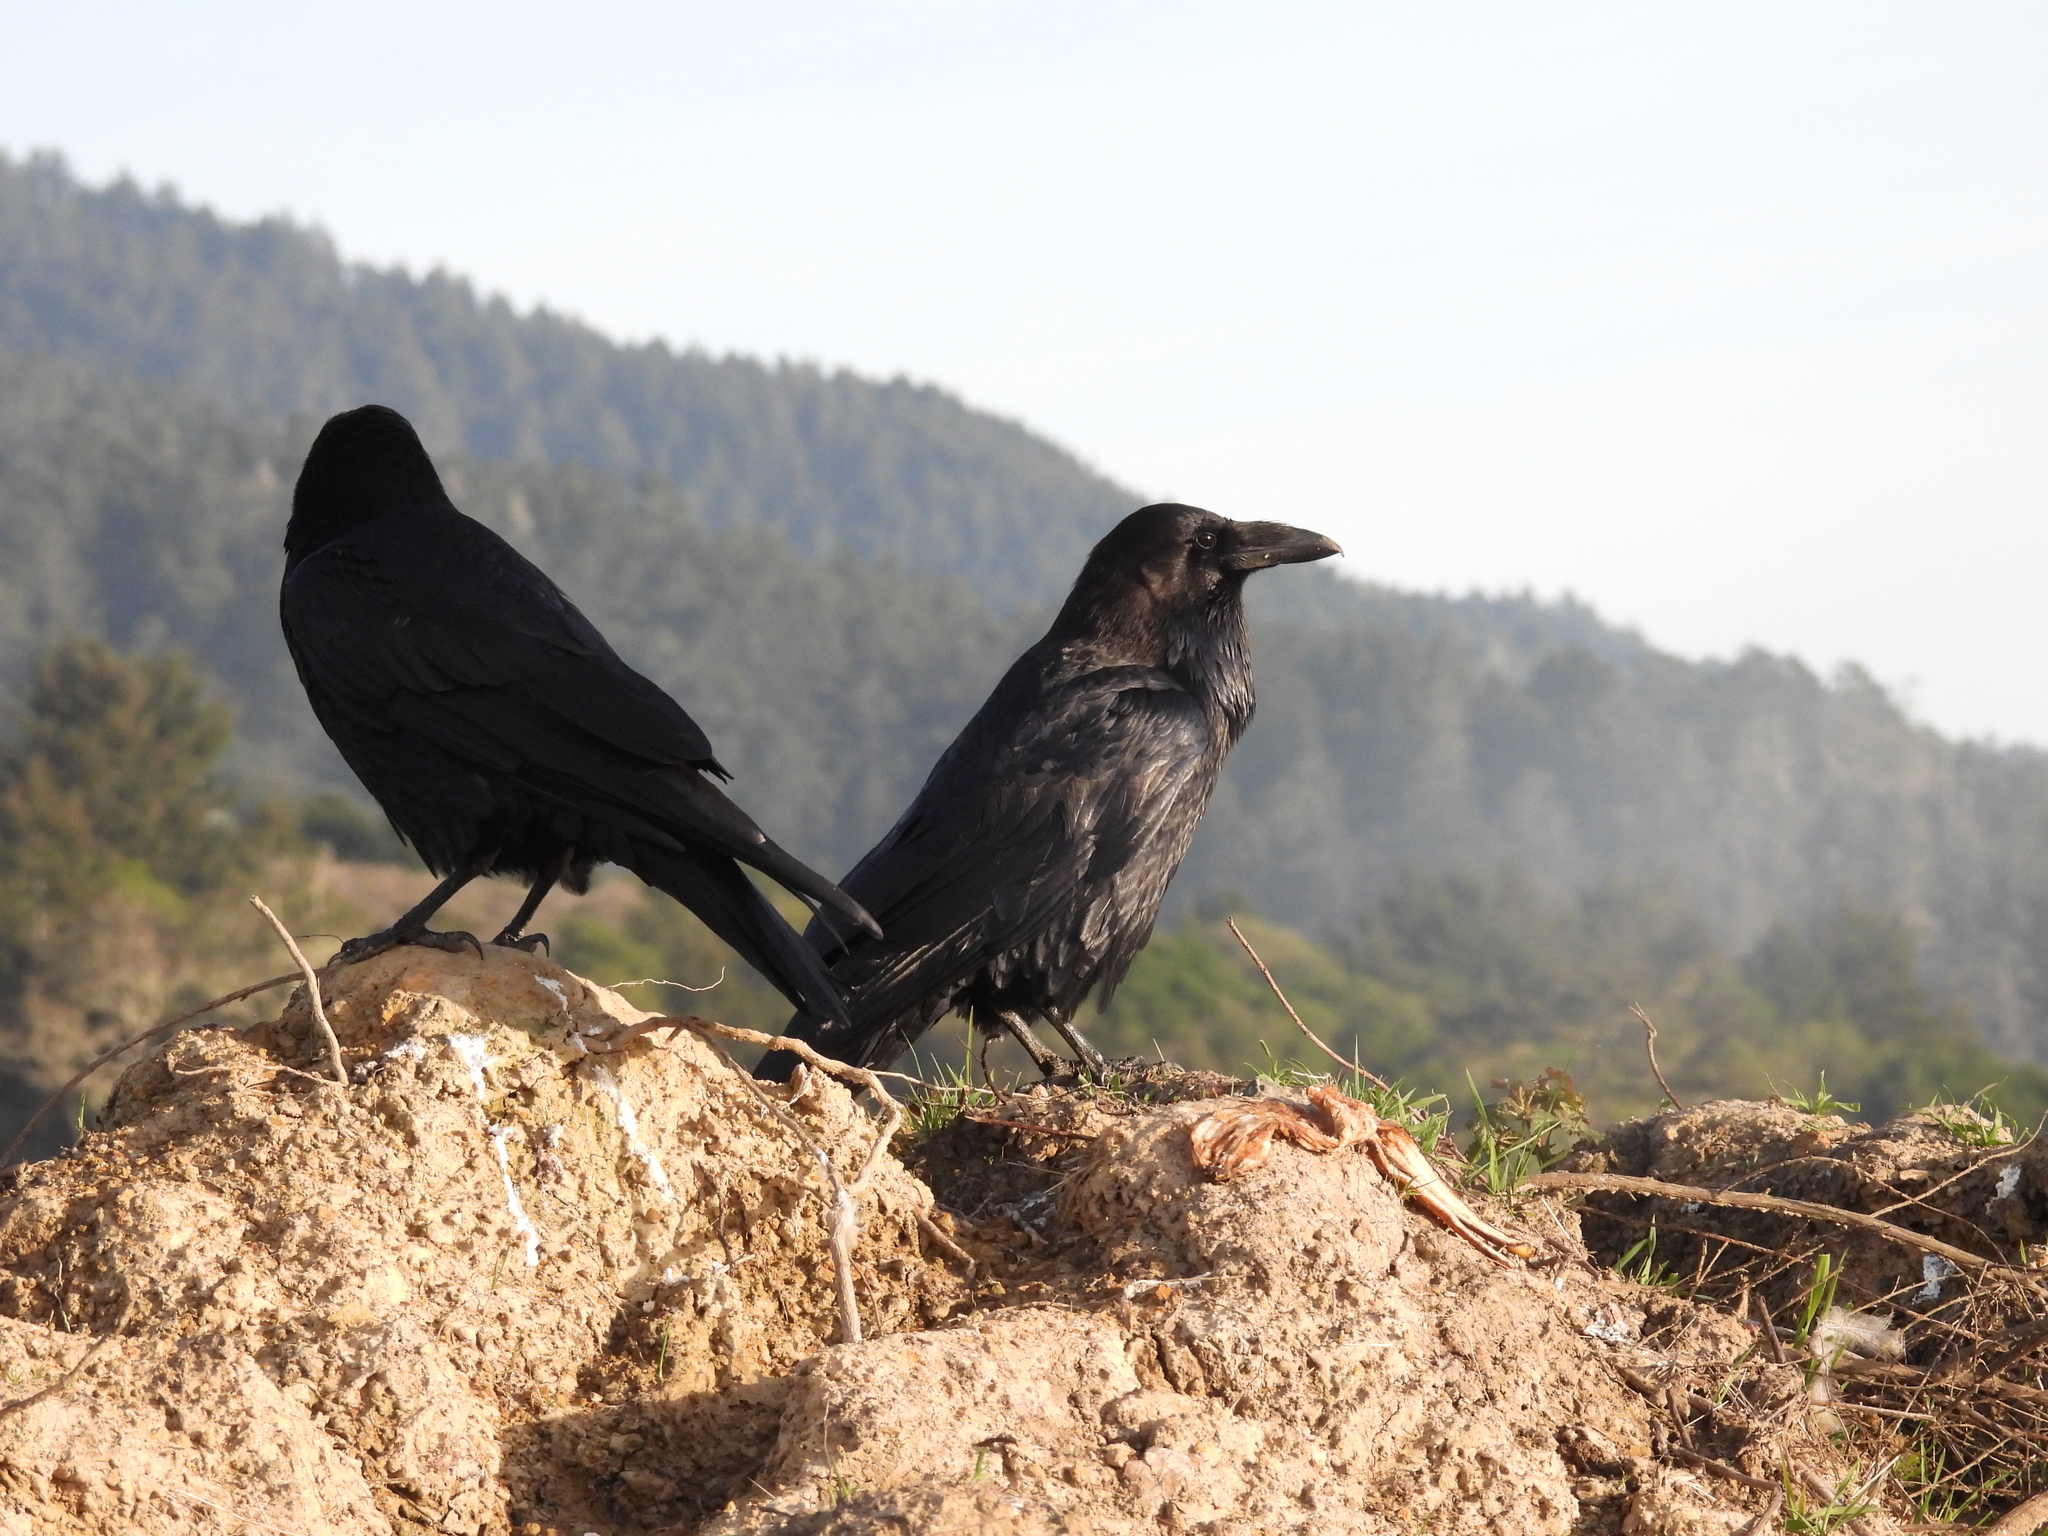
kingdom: Animalia
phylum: Chordata
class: Aves
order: Passeriformes
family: Corvidae
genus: Corvus
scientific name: Corvus corax
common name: Common raven
